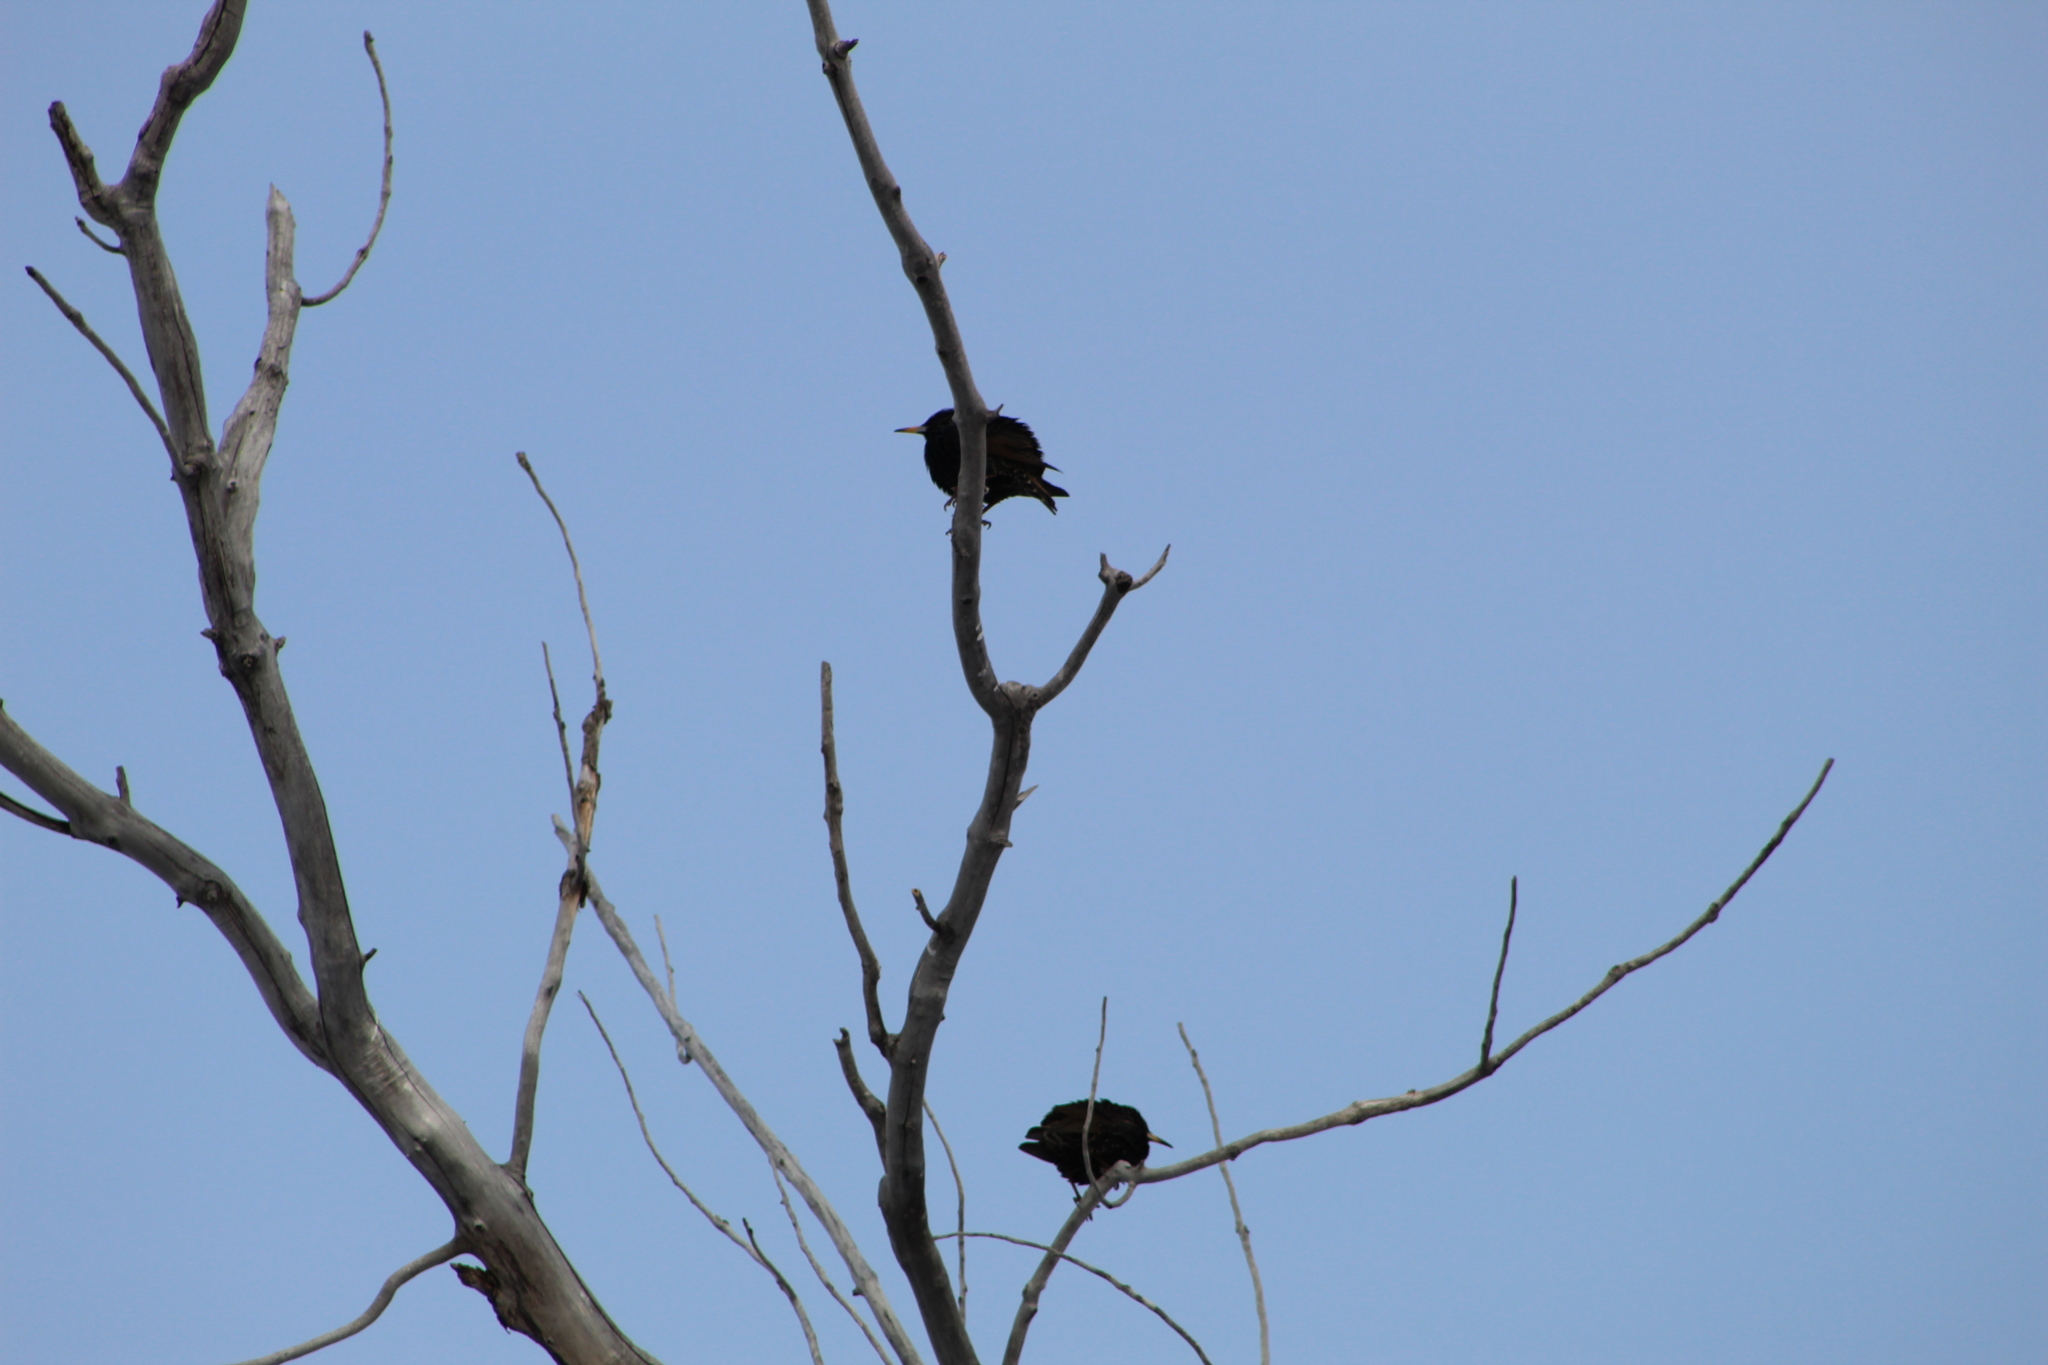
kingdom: Animalia
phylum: Chordata
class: Aves
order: Passeriformes
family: Sturnidae
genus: Sturnus
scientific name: Sturnus vulgaris
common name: Common starling
